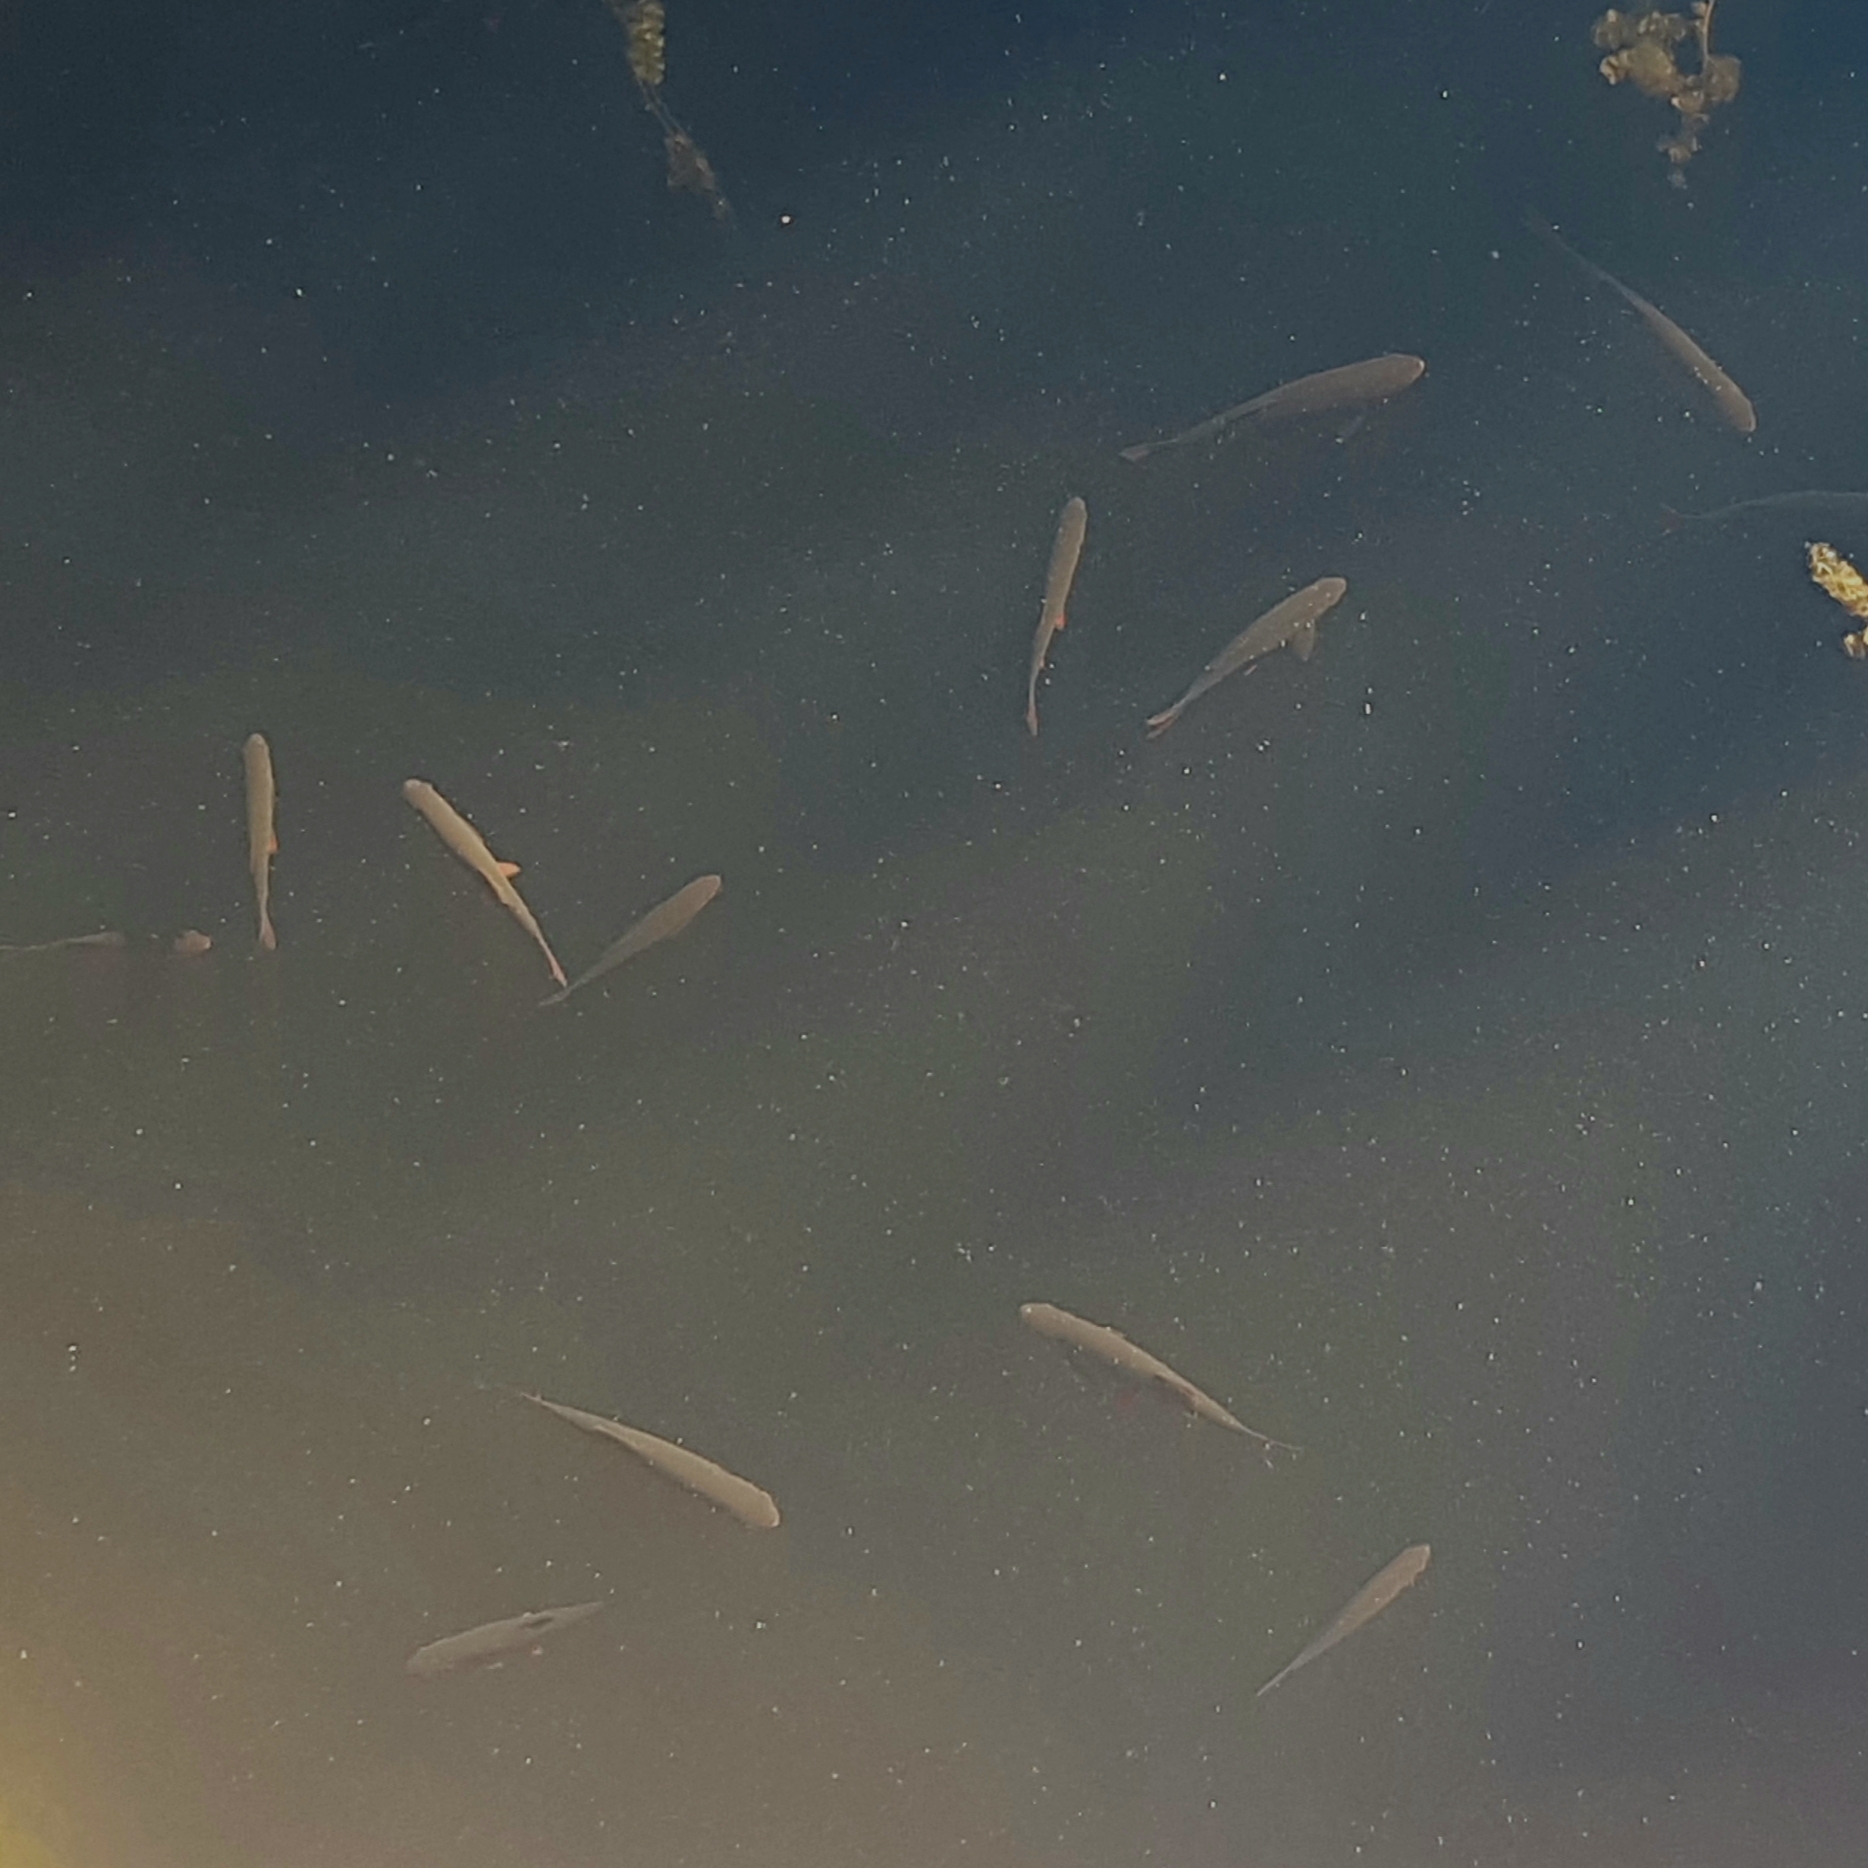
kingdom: Animalia
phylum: Chordata
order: Cypriniformes
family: Cyprinidae
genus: Rutilus
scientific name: Rutilus rutilus
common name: Roach
